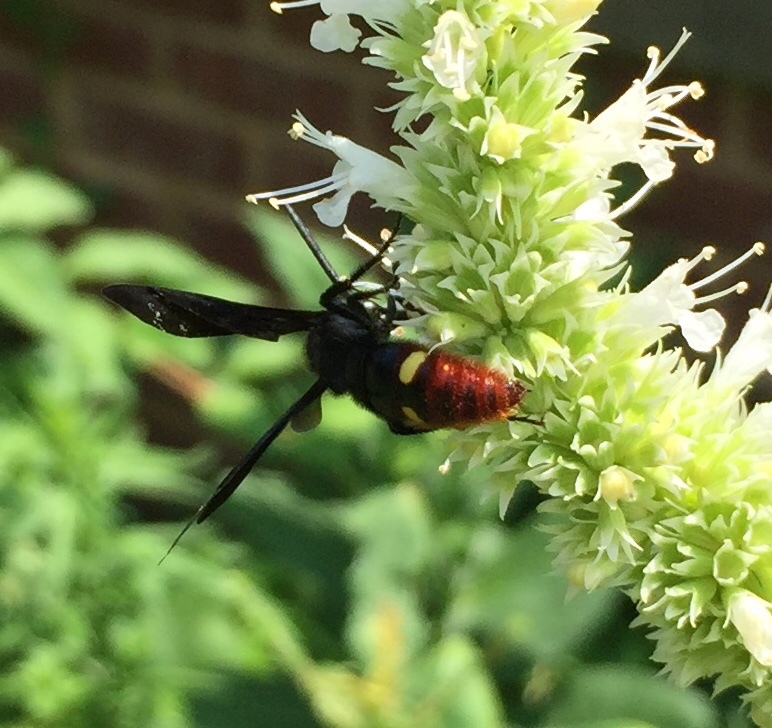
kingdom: Animalia
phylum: Arthropoda
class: Insecta
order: Hymenoptera
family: Scoliidae
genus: Scolia
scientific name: Scolia dubia
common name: Blue-winged scoliid wasp
